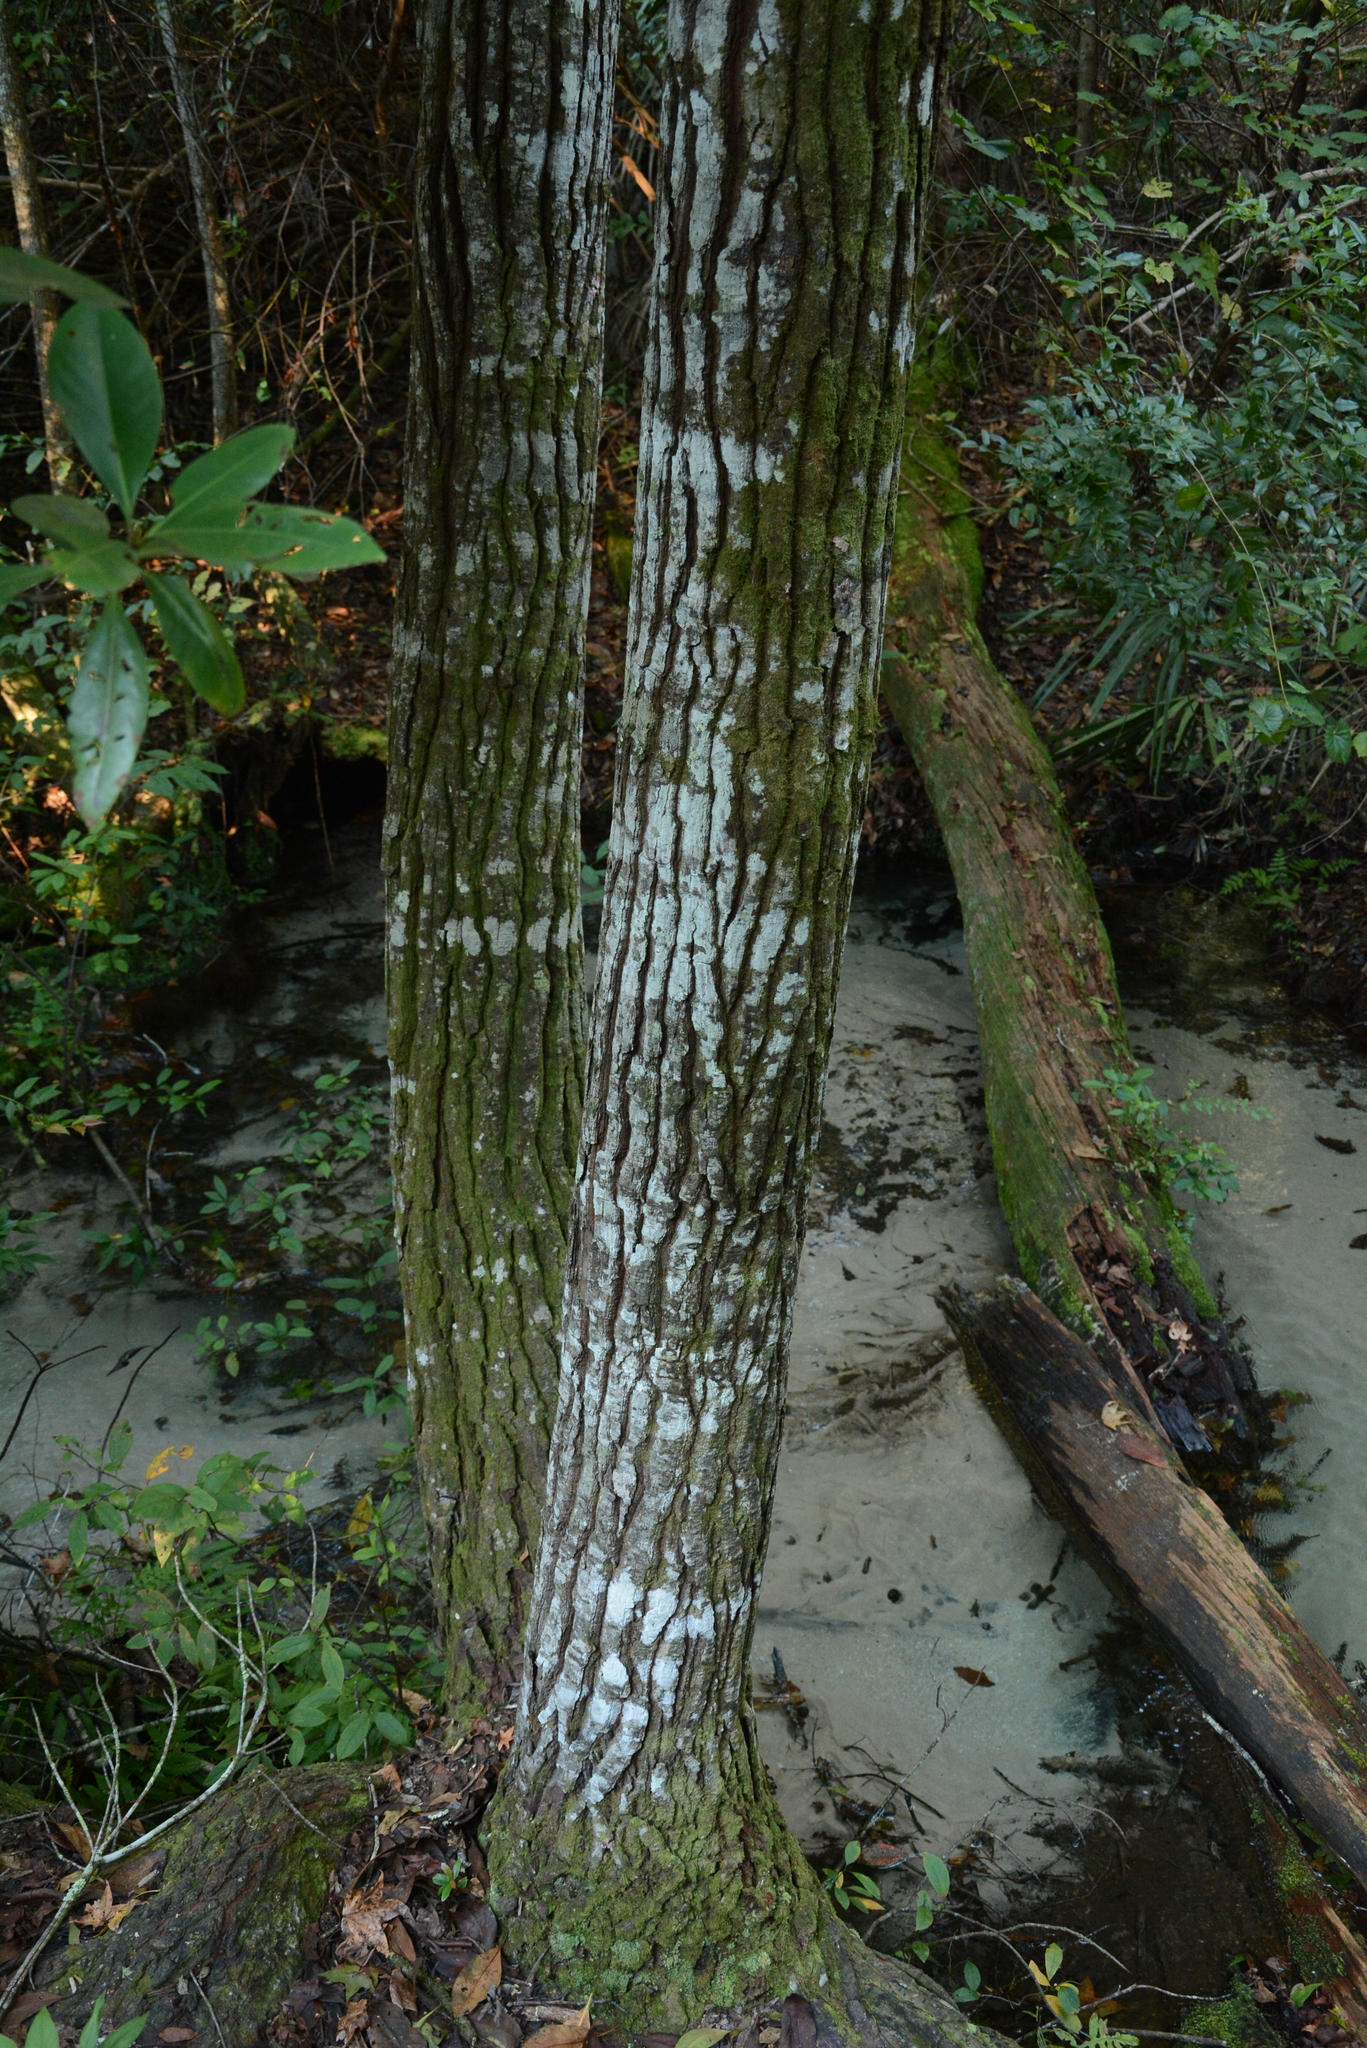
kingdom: Plantae
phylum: Tracheophyta
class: Magnoliopsida
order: Ericales
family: Theaceae
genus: Gordonia
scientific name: Gordonia lasianthus
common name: Loblolly bay
